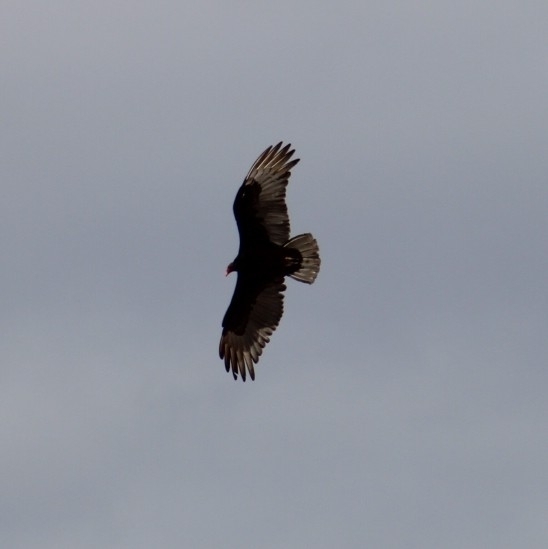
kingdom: Animalia
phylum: Chordata
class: Aves
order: Accipitriformes
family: Cathartidae
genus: Cathartes
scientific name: Cathartes aura
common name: Turkey vulture
